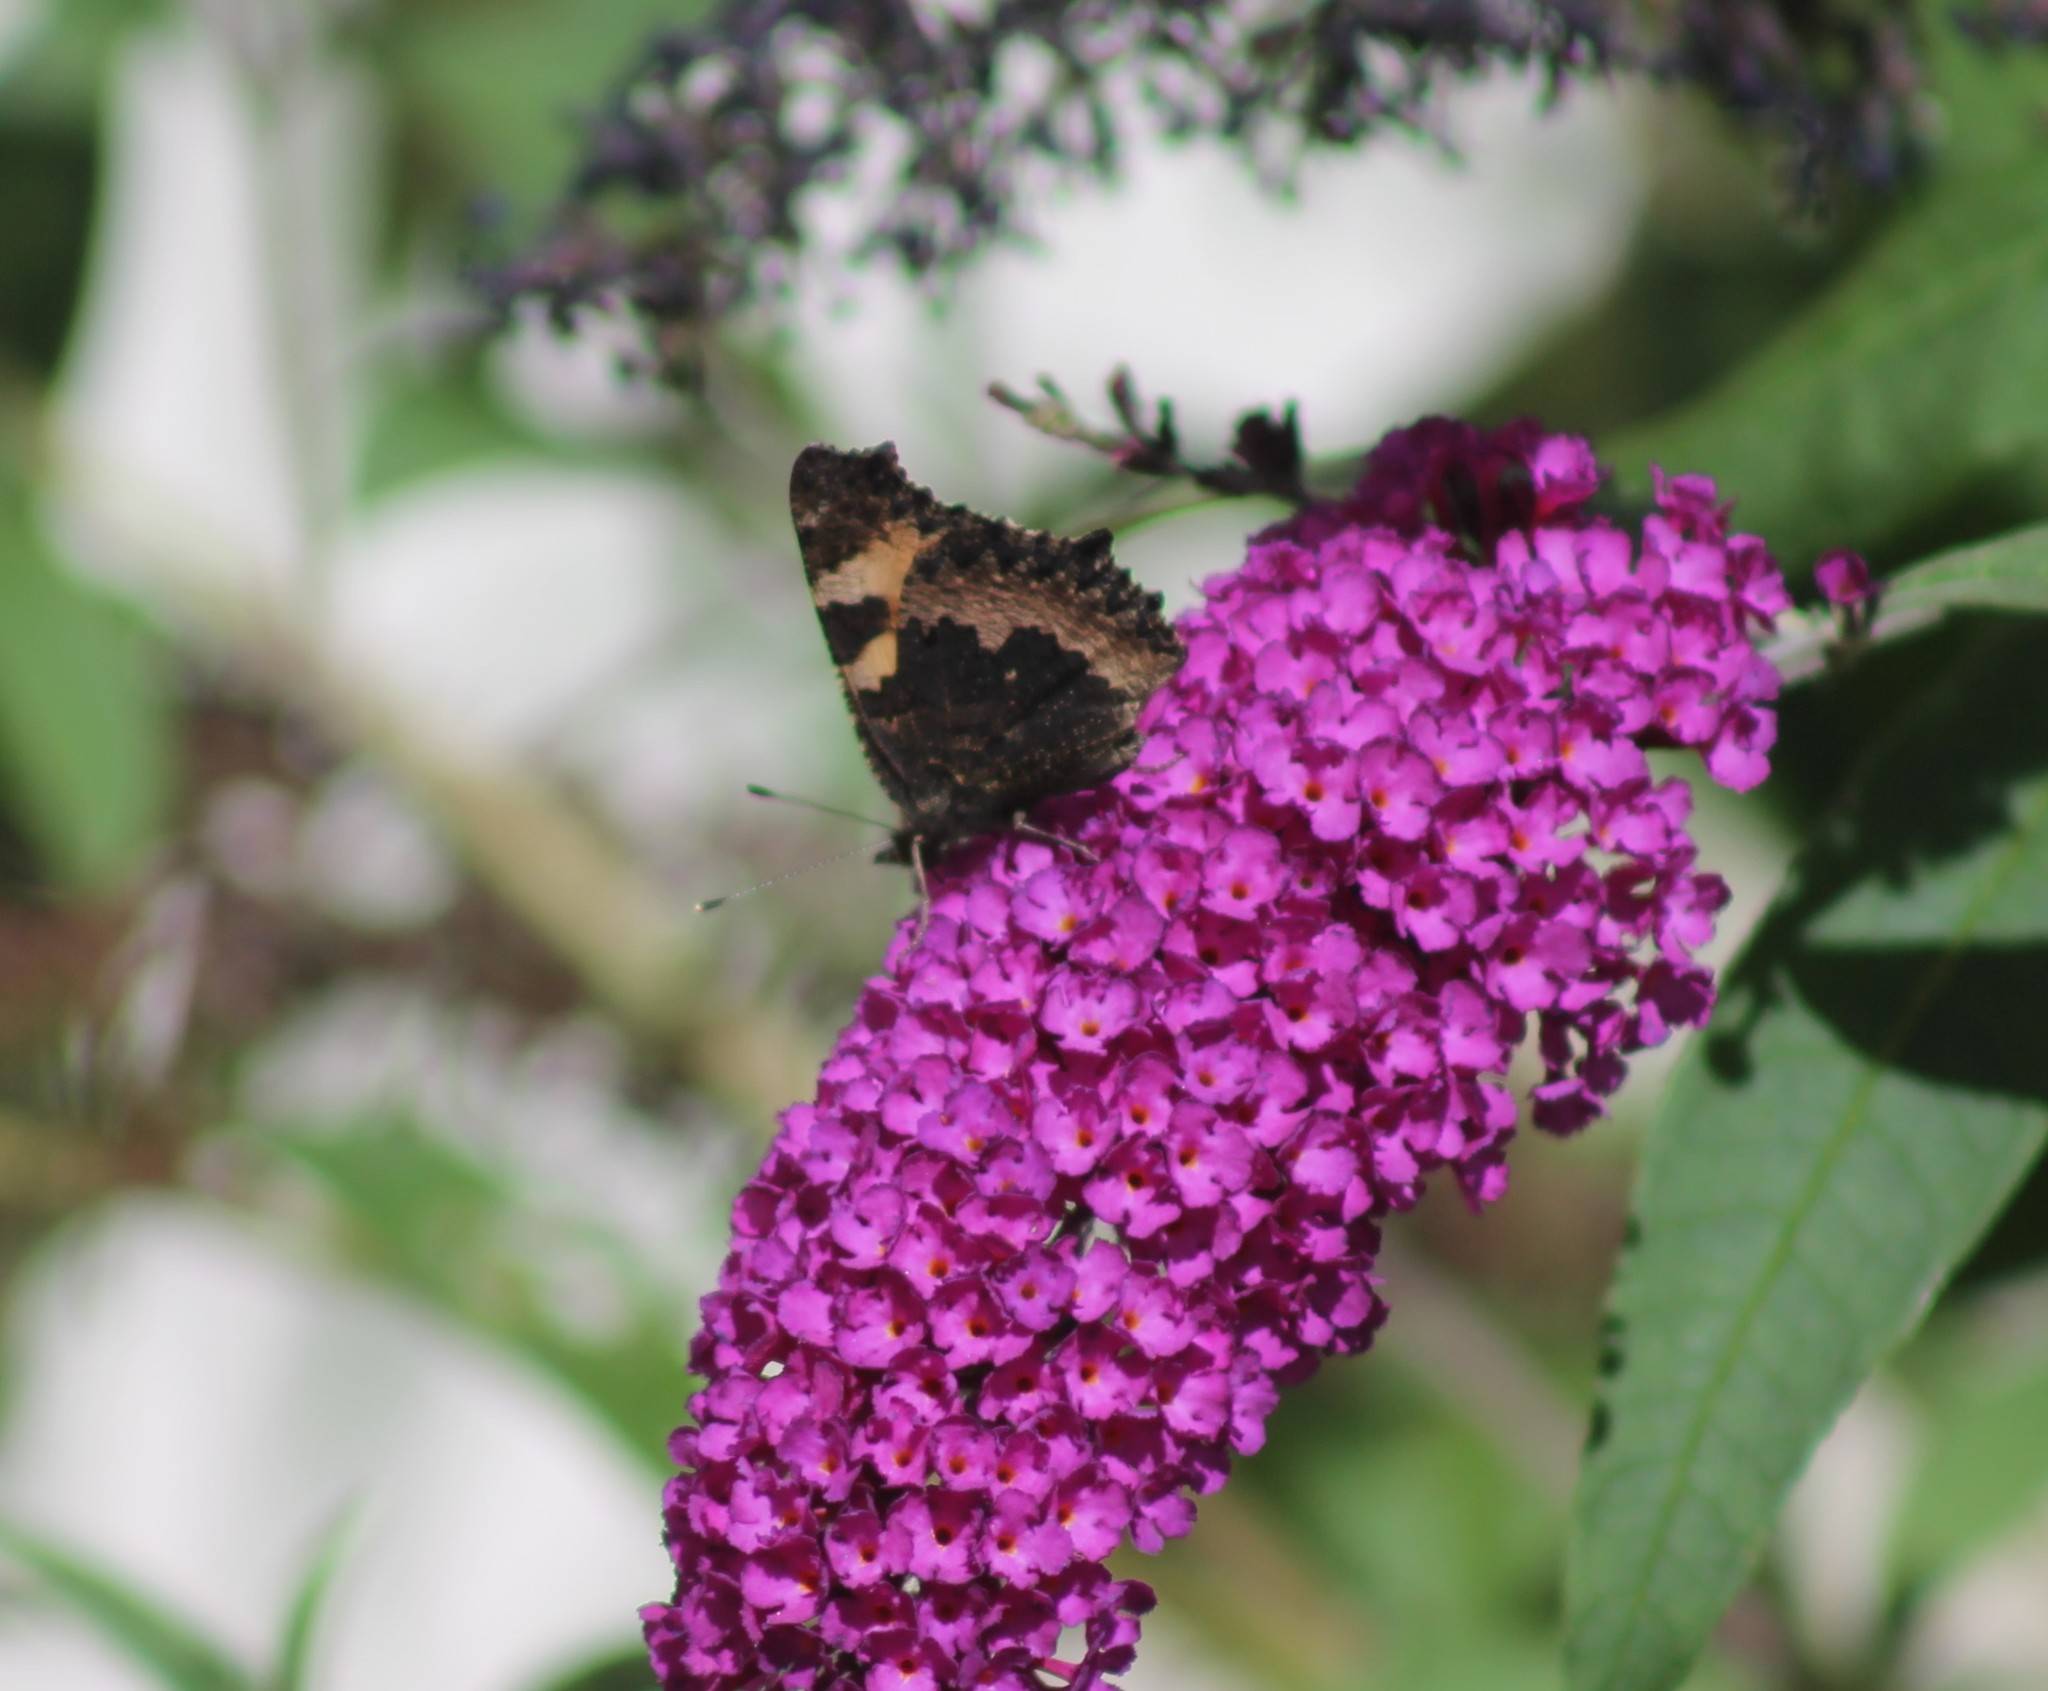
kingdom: Animalia
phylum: Arthropoda
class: Insecta
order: Lepidoptera
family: Nymphalidae
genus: Aglais
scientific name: Aglais urticae
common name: Small tortoiseshell
